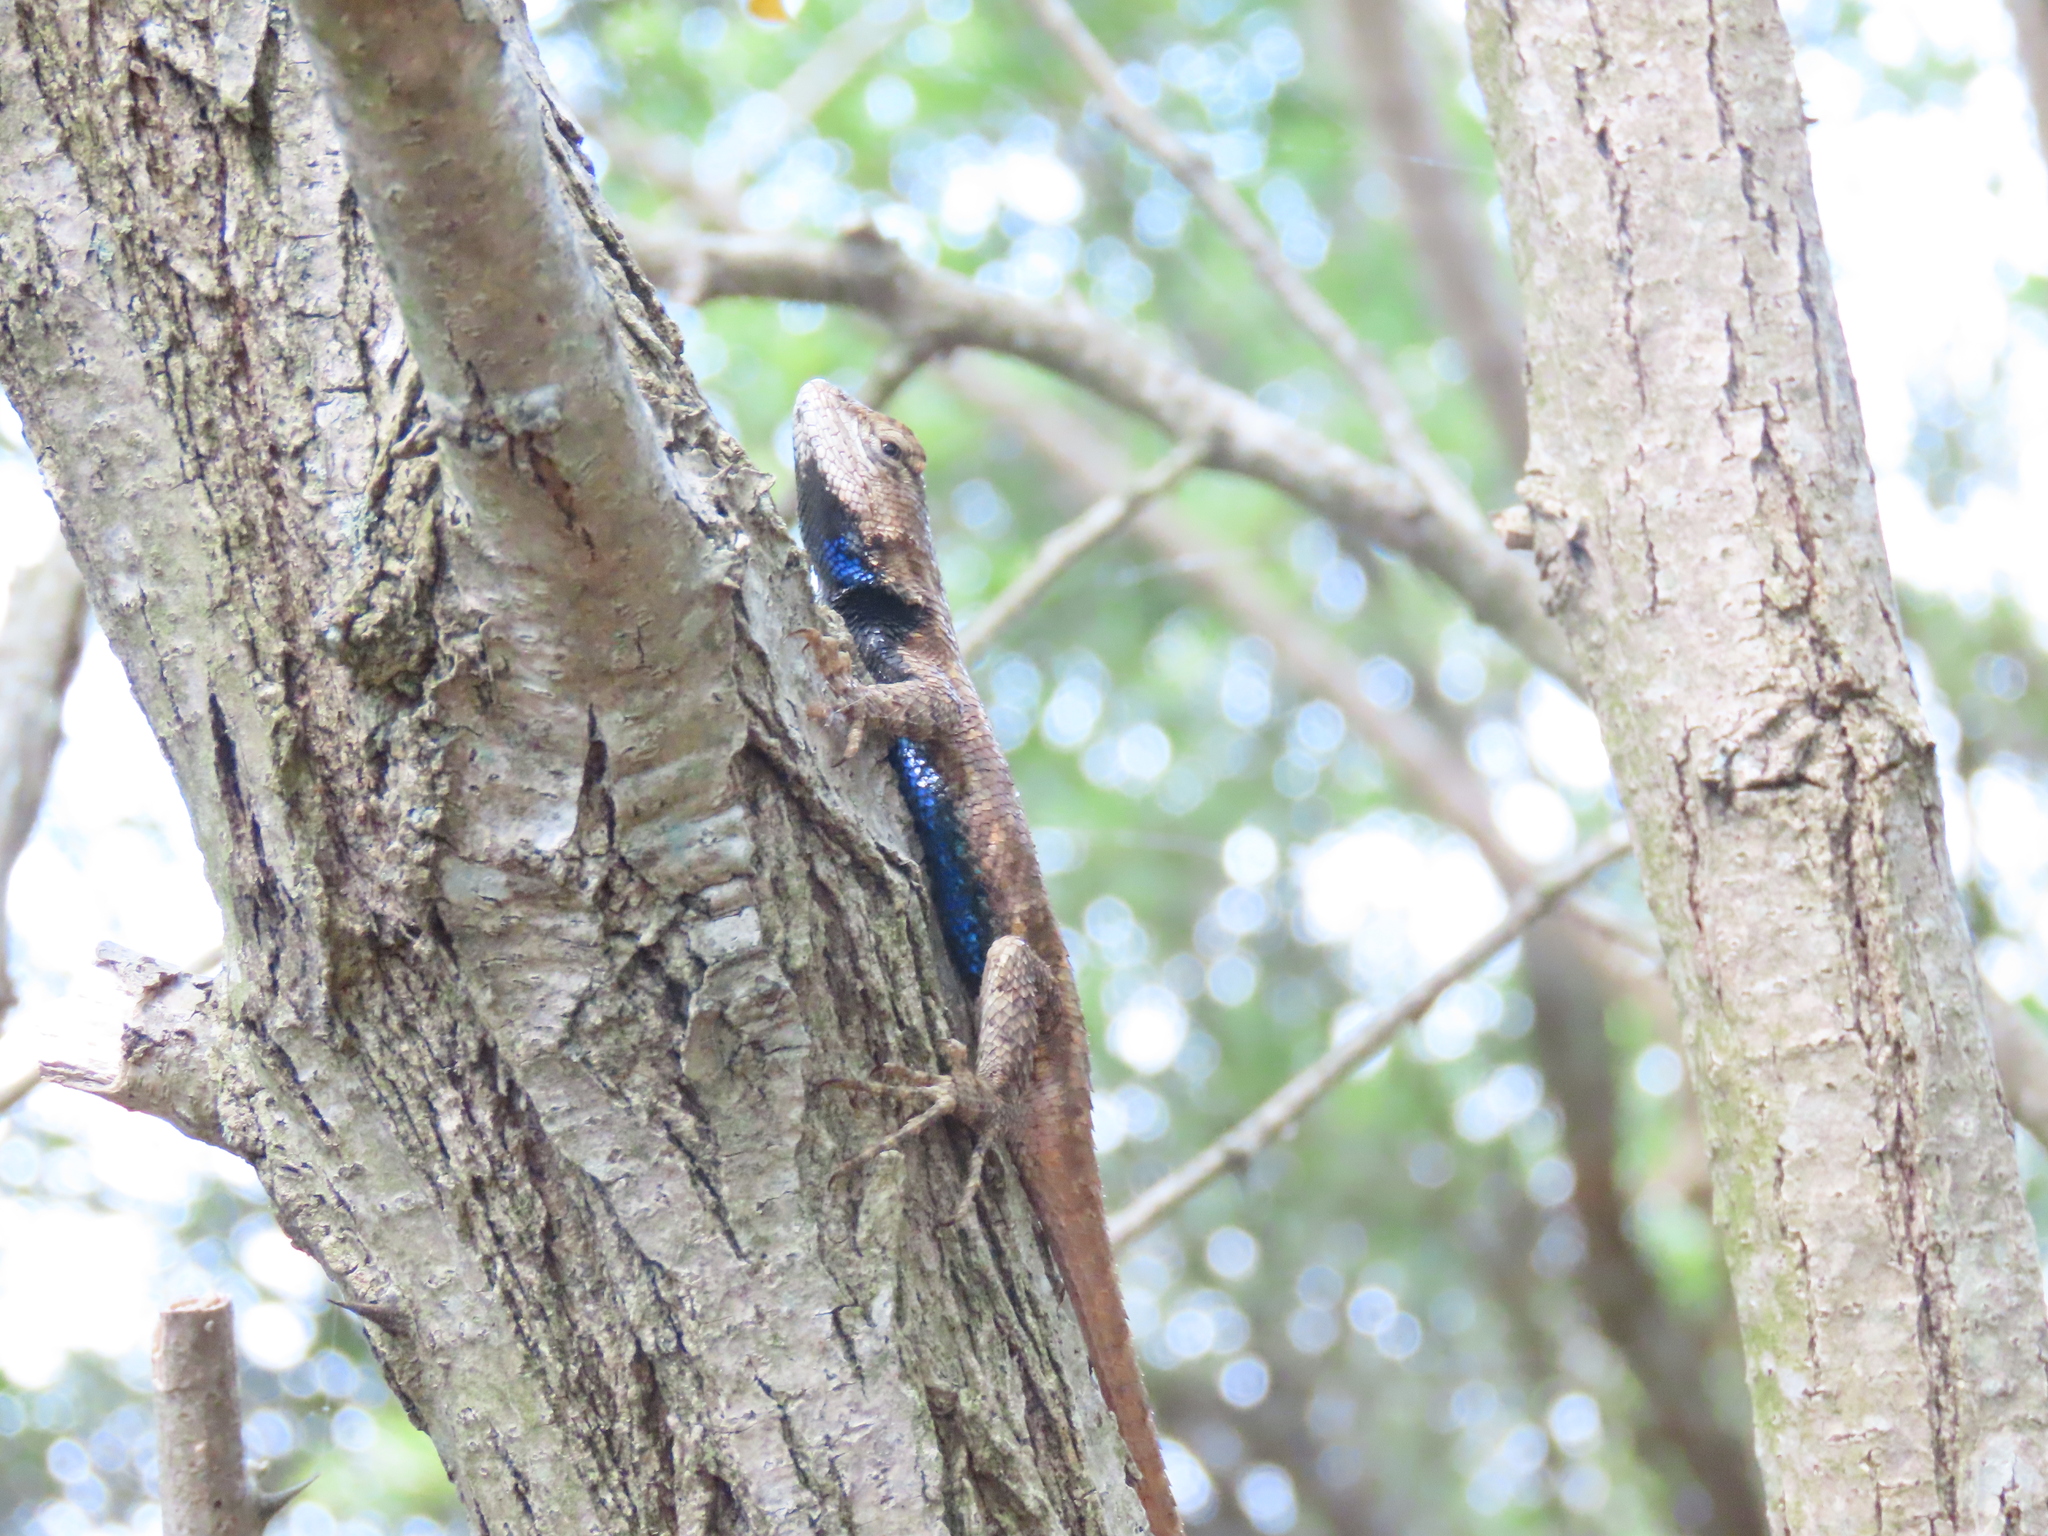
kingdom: Animalia
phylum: Chordata
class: Squamata
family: Phrynosomatidae
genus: Sceloporus
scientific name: Sceloporus undulatus
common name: Eastern fence lizard
